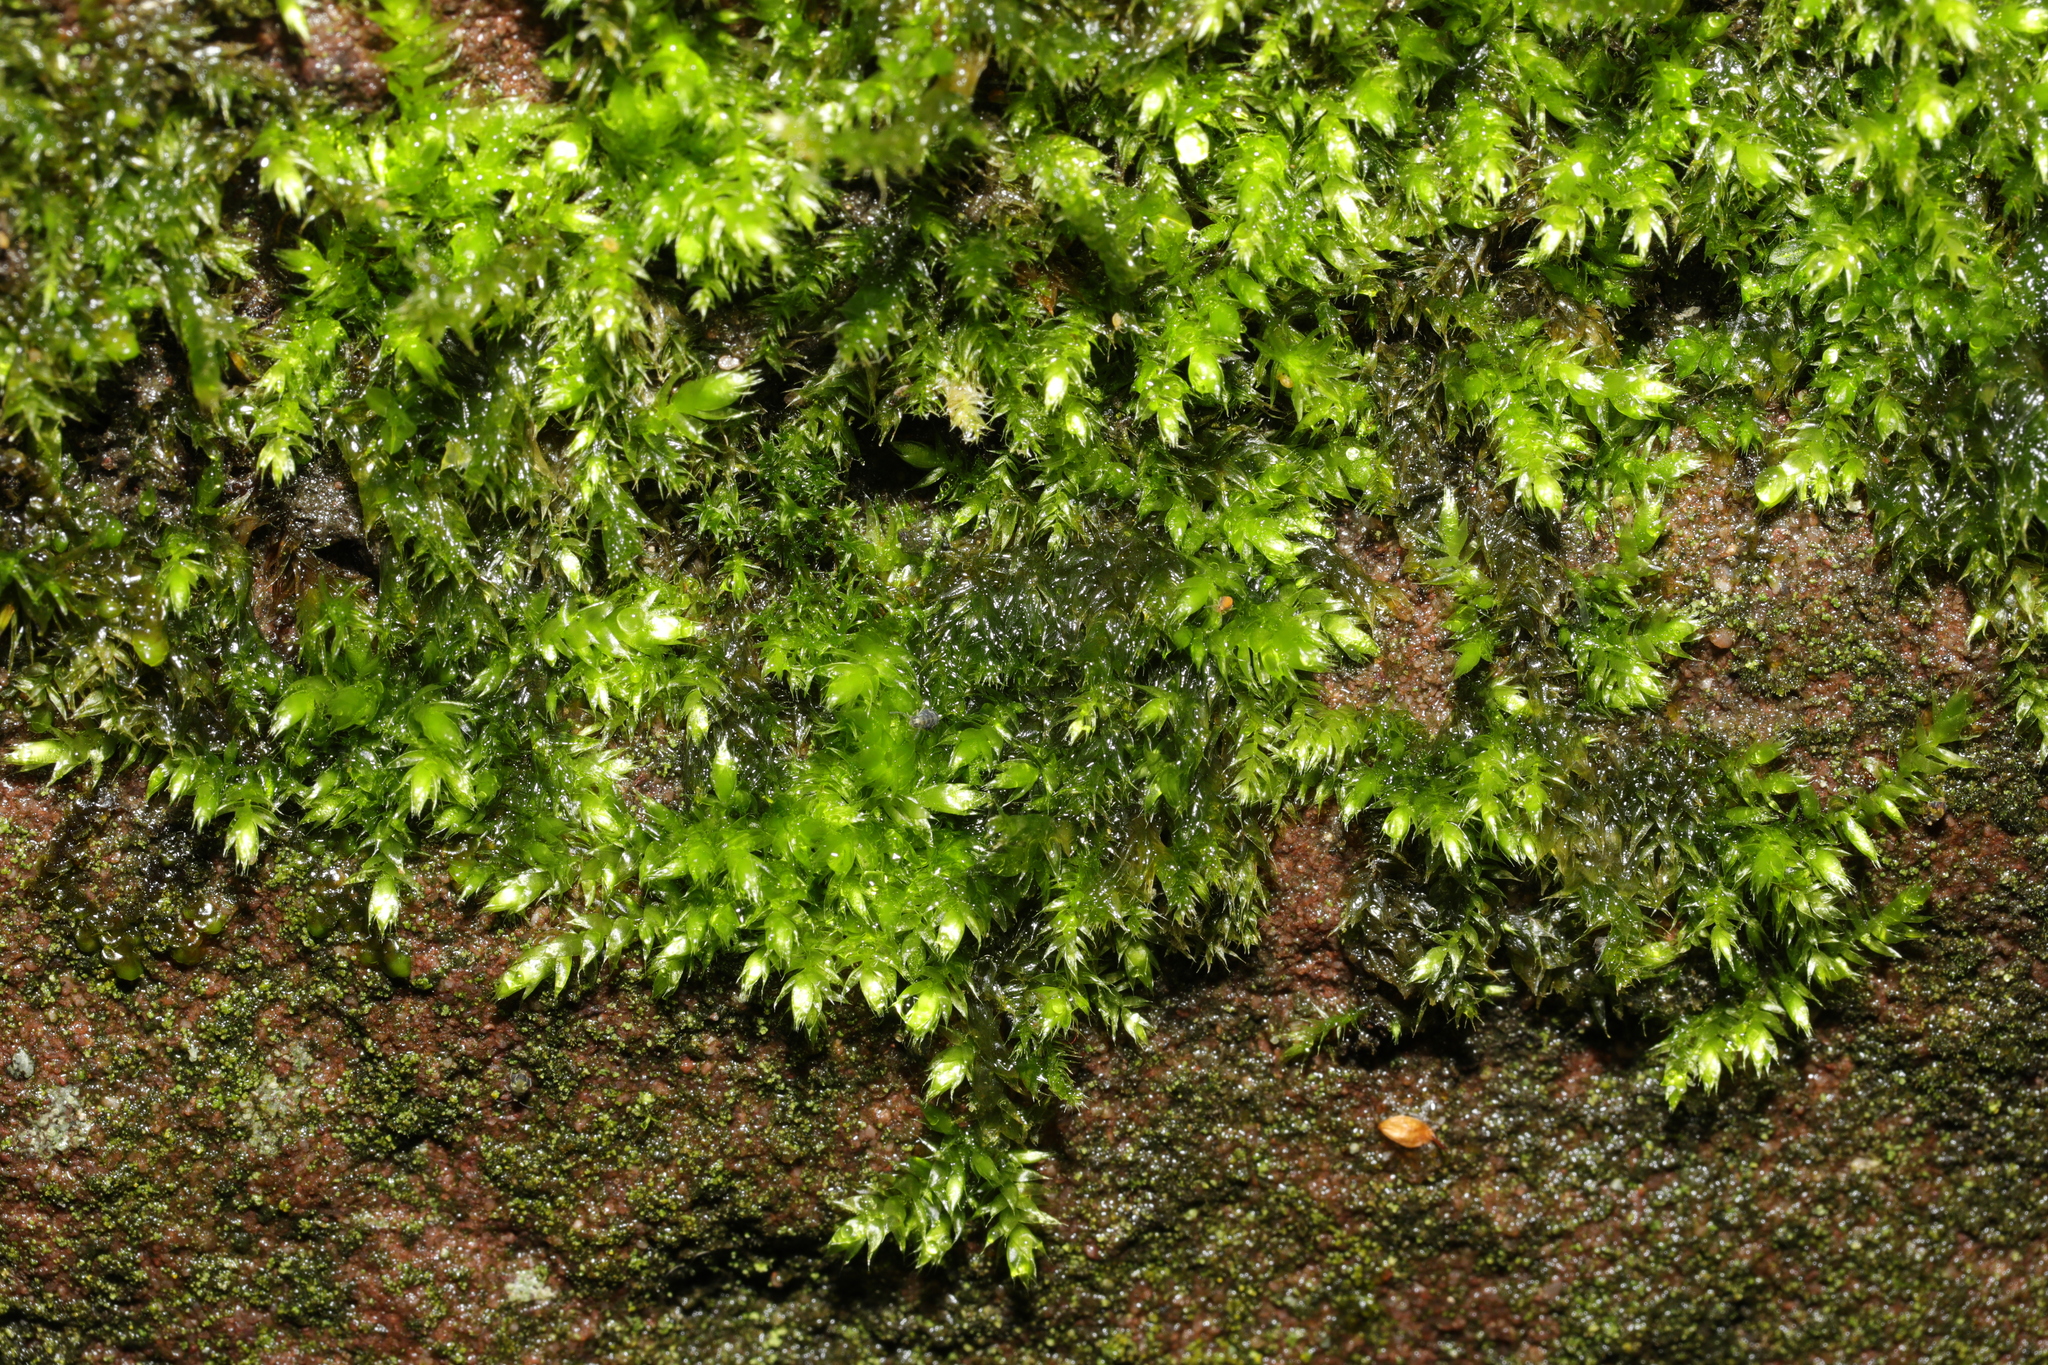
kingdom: Plantae
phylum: Bryophyta
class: Bryopsida
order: Hypnales
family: Brachytheciaceae
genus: Rhynchostegium
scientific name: Rhynchostegium confertum
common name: Clustered feather-moss
